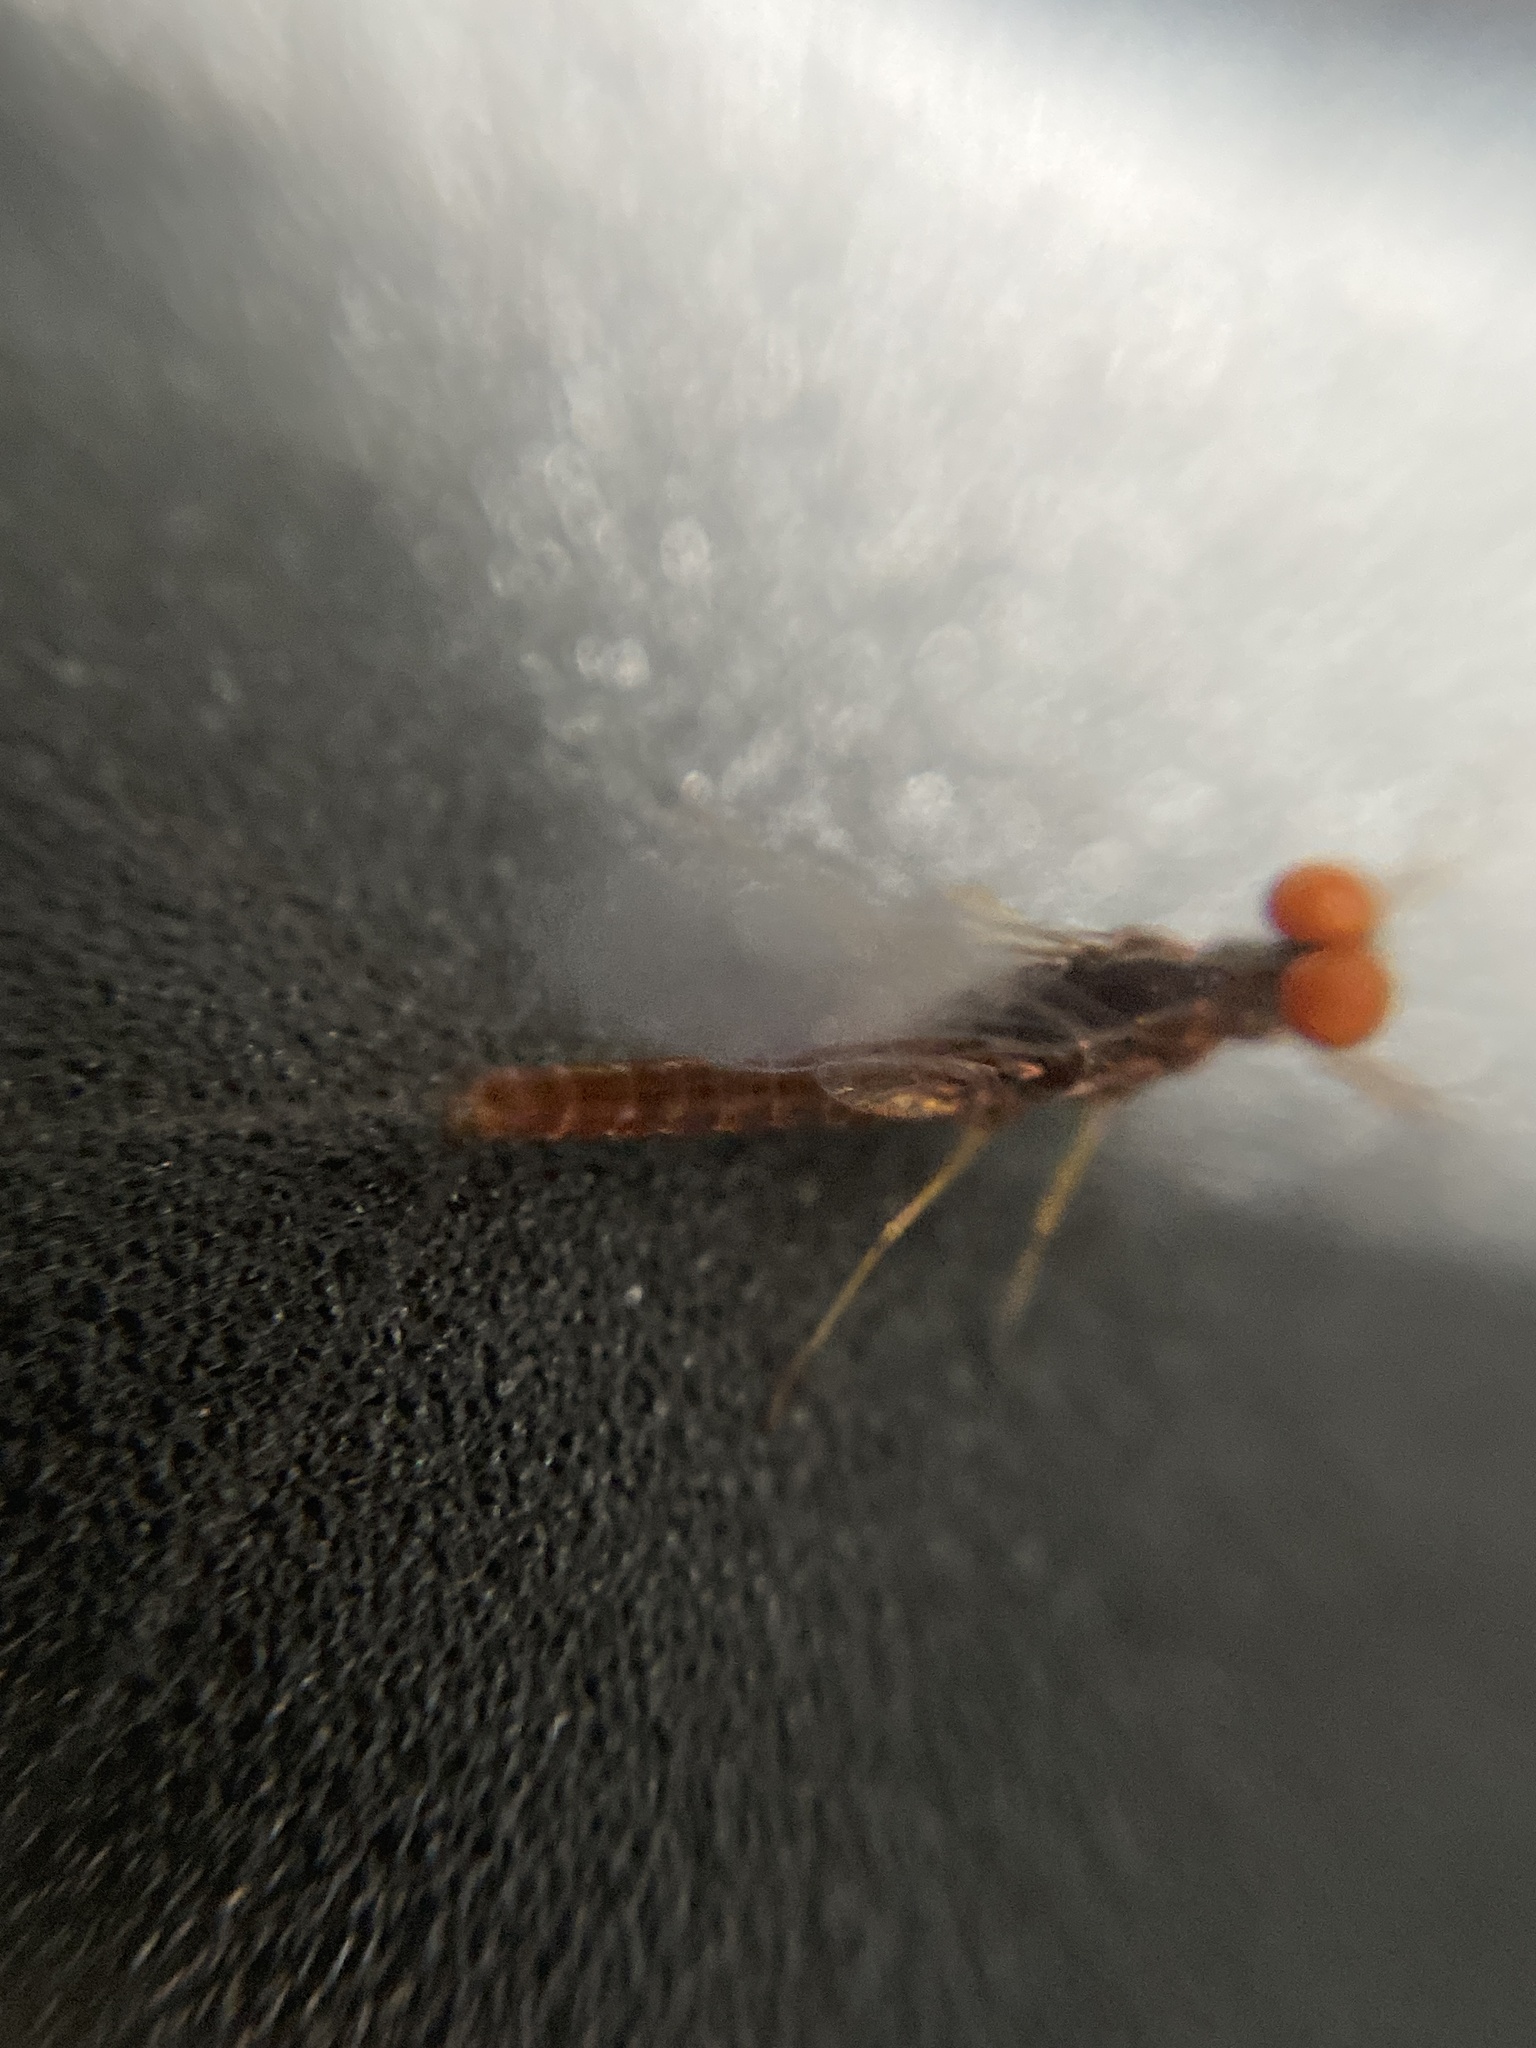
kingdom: Animalia
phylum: Arthropoda
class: Insecta
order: Ephemeroptera
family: Ephemerellidae
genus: Serratella
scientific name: Serratella ignita
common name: Blue-winged olive
